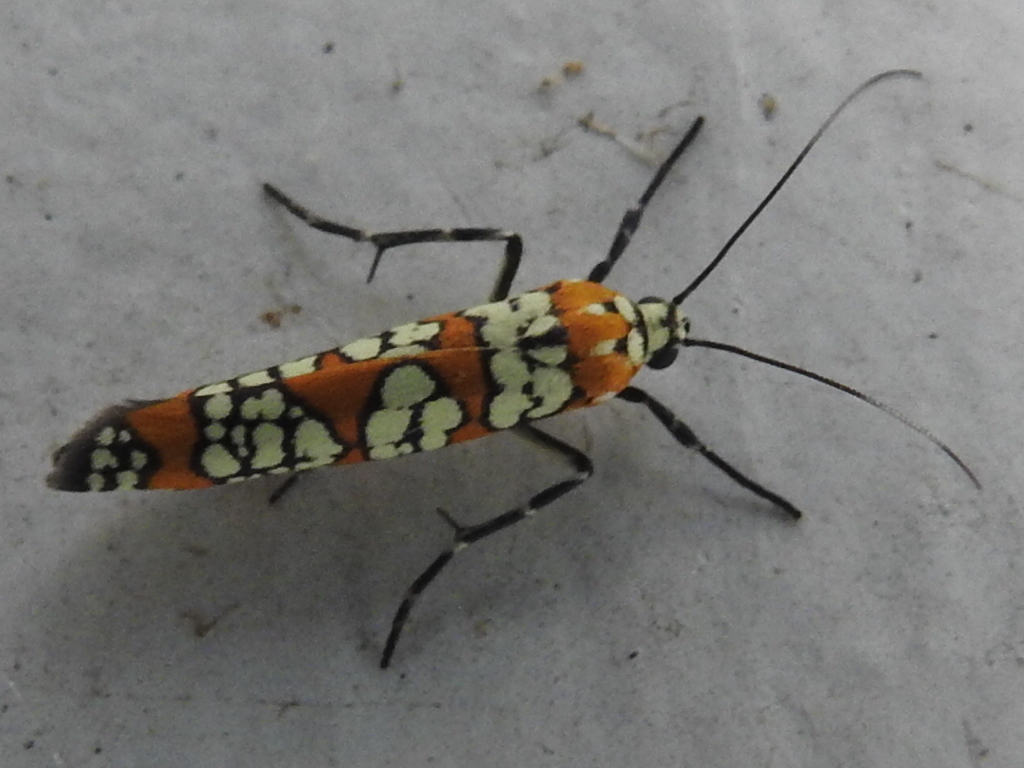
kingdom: Animalia
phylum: Arthropoda
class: Insecta
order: Lepidoptera
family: Attevidae
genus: Atteva
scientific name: Atteva punctella
